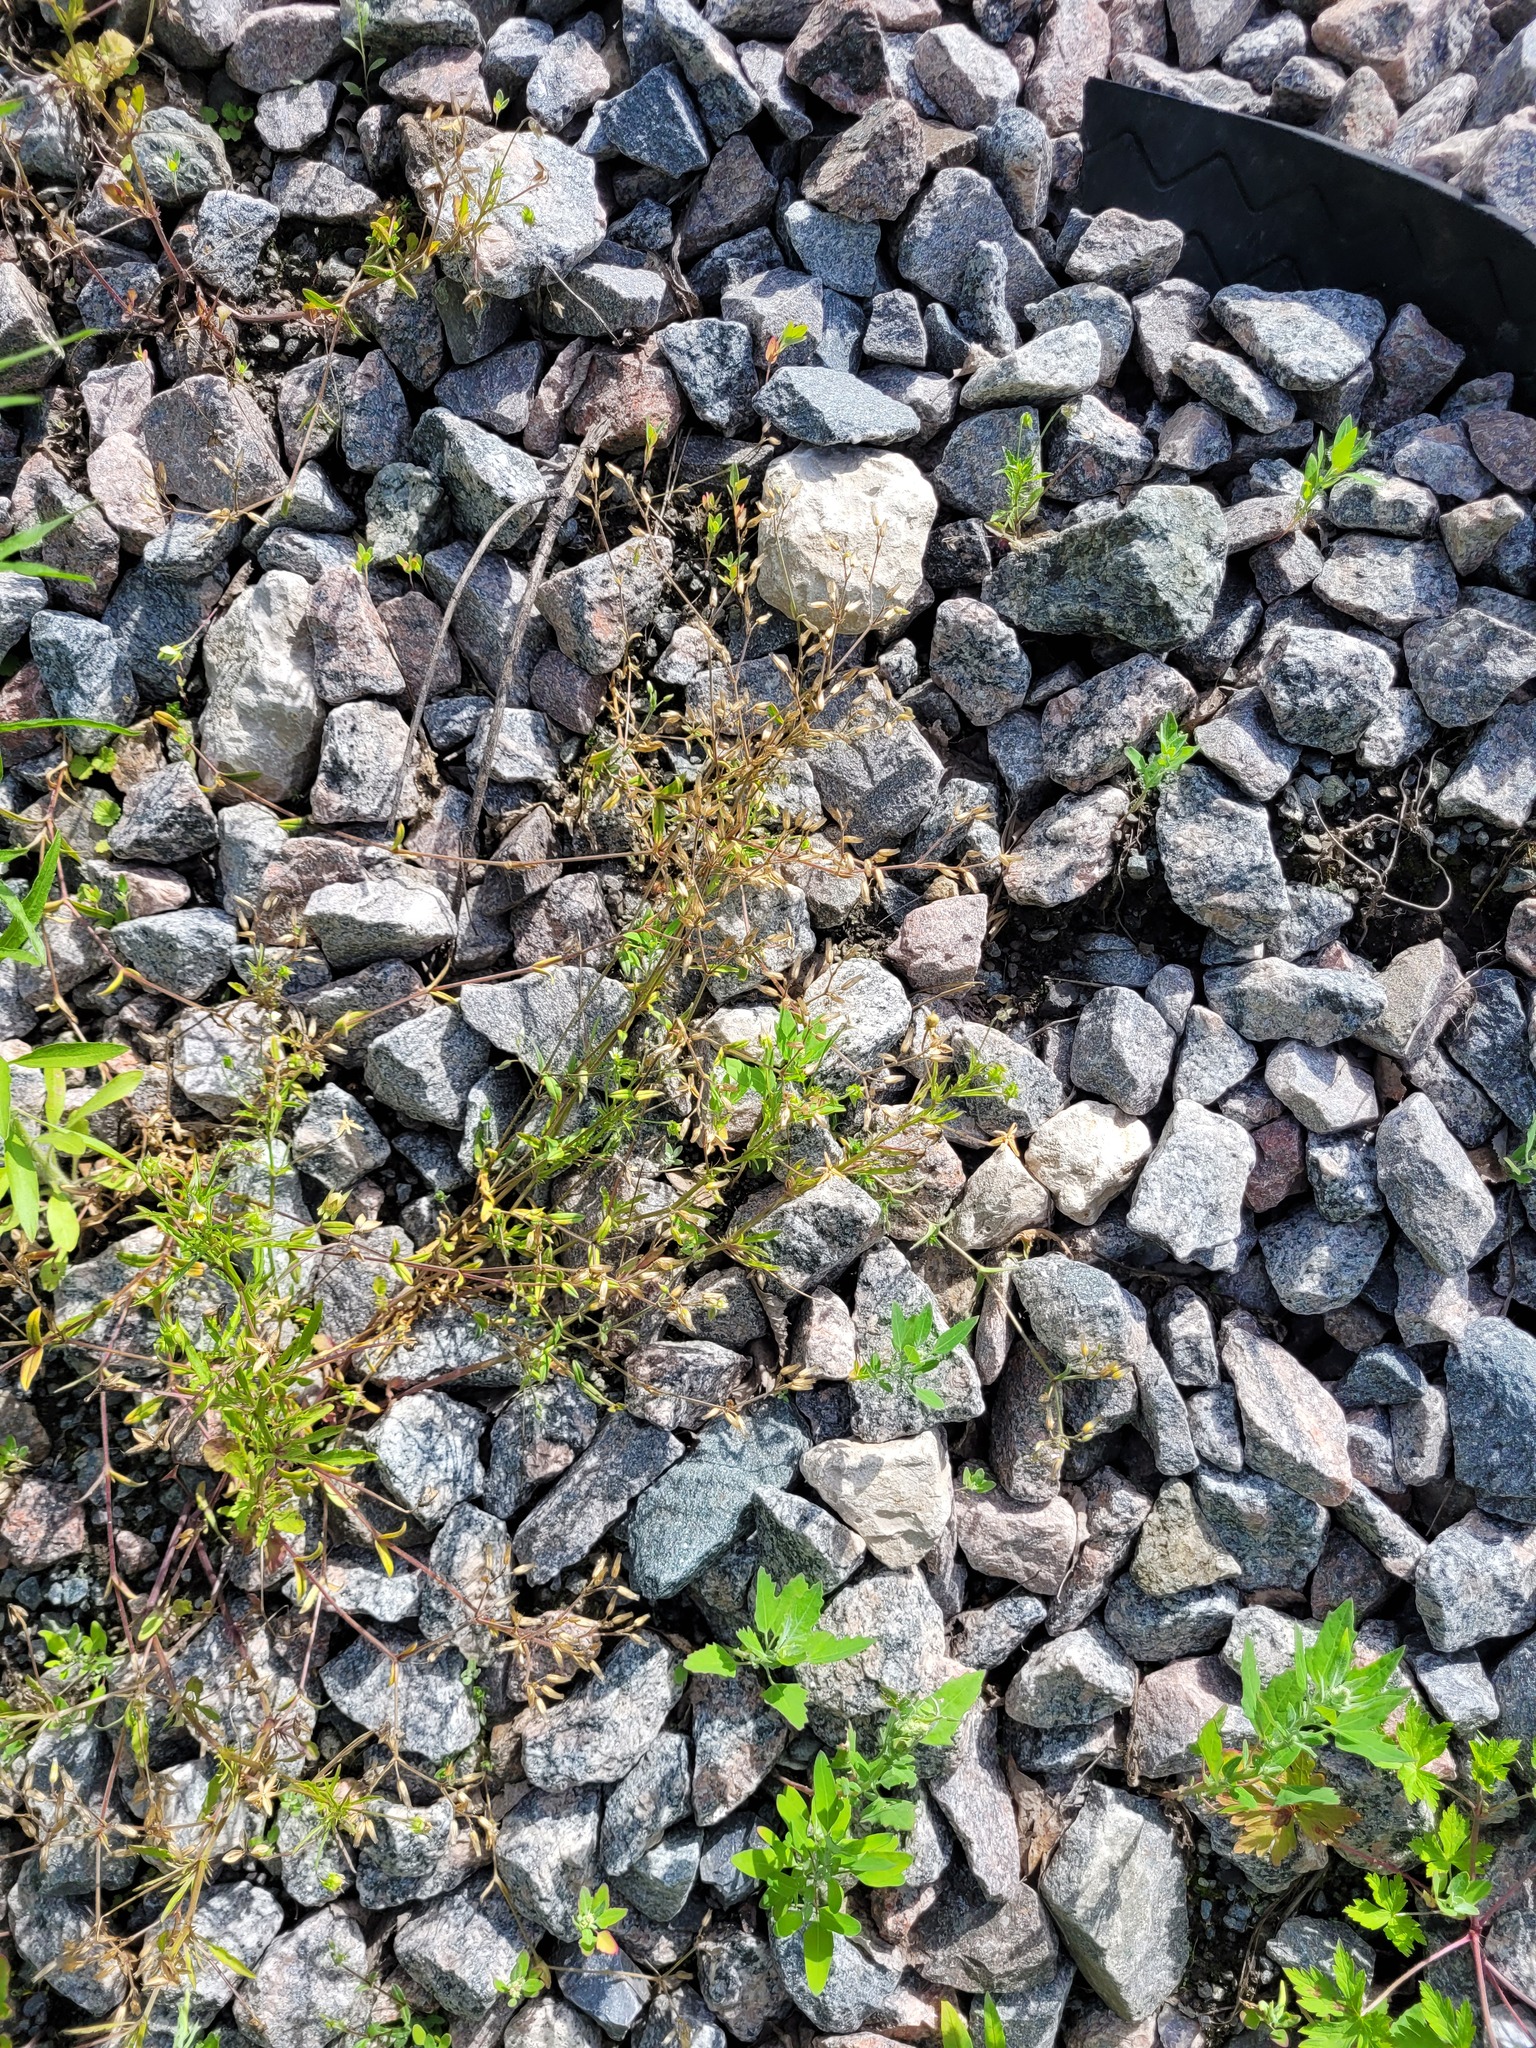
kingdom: Plantae
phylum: Tracheophyta
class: Magnoliopsida
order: Caryophyllales
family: Caryophyllaceae
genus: Cerastium
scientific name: Cerastium holosteoides
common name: Big chickweed
